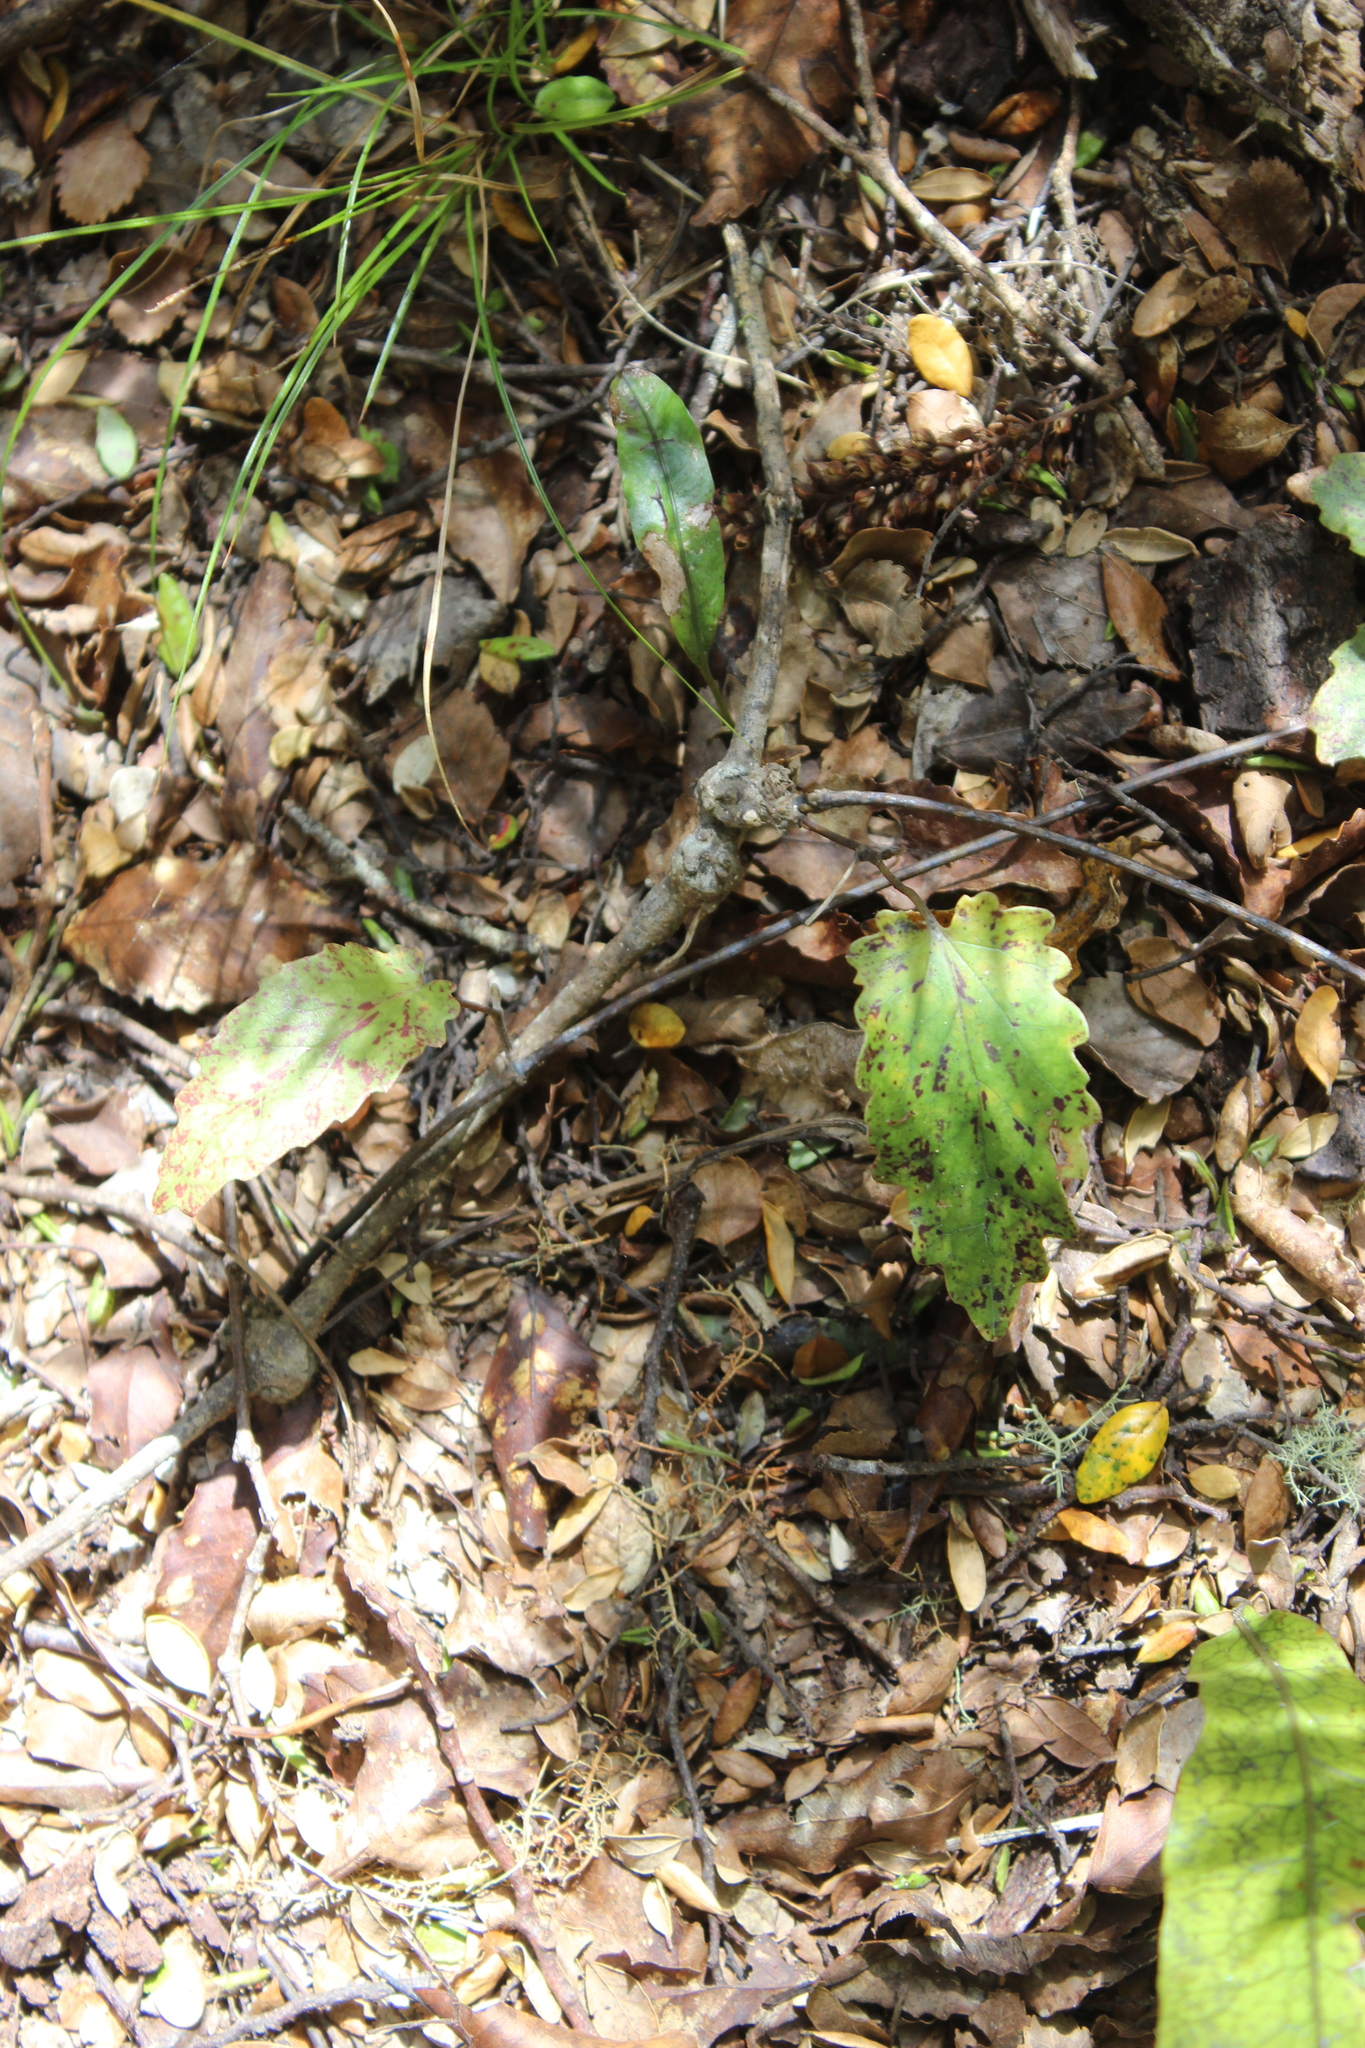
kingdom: Plantae
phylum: Tracheophyta
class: Magnoliopsida
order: Ranunculales
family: Ranunculaceae
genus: Clematis
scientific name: Clematis paniculata
